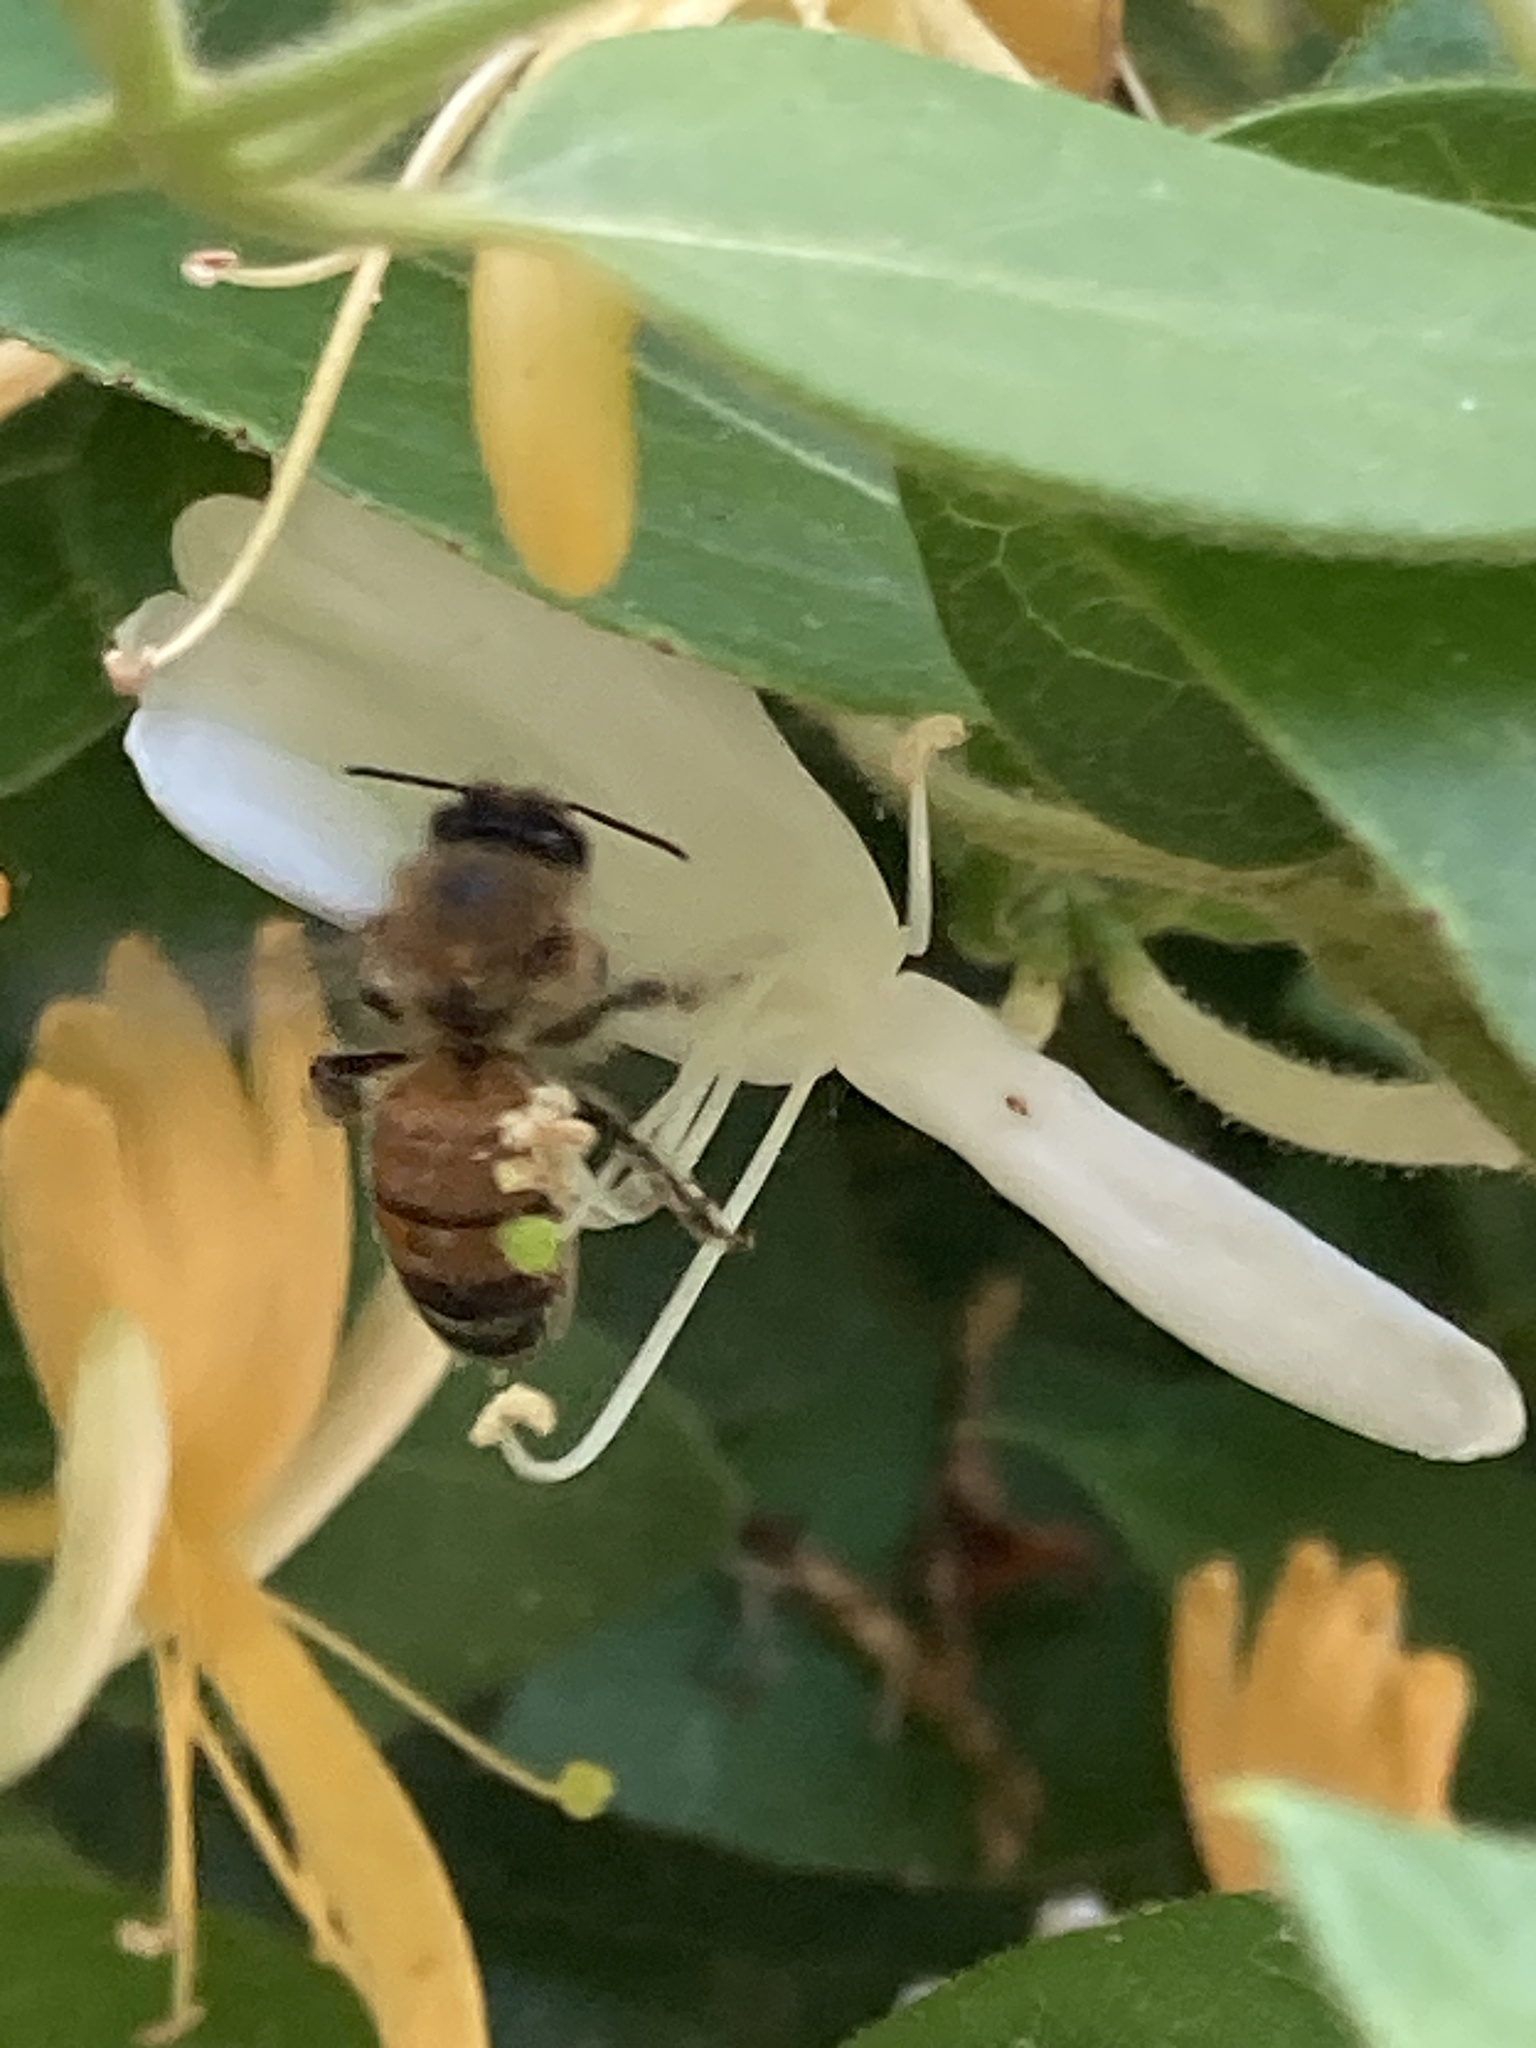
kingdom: Animalia
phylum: Arthropoda
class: Insecta
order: Hymenoptera
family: Apidae
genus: Apis
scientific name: Apis mellifera
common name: Honey bee
